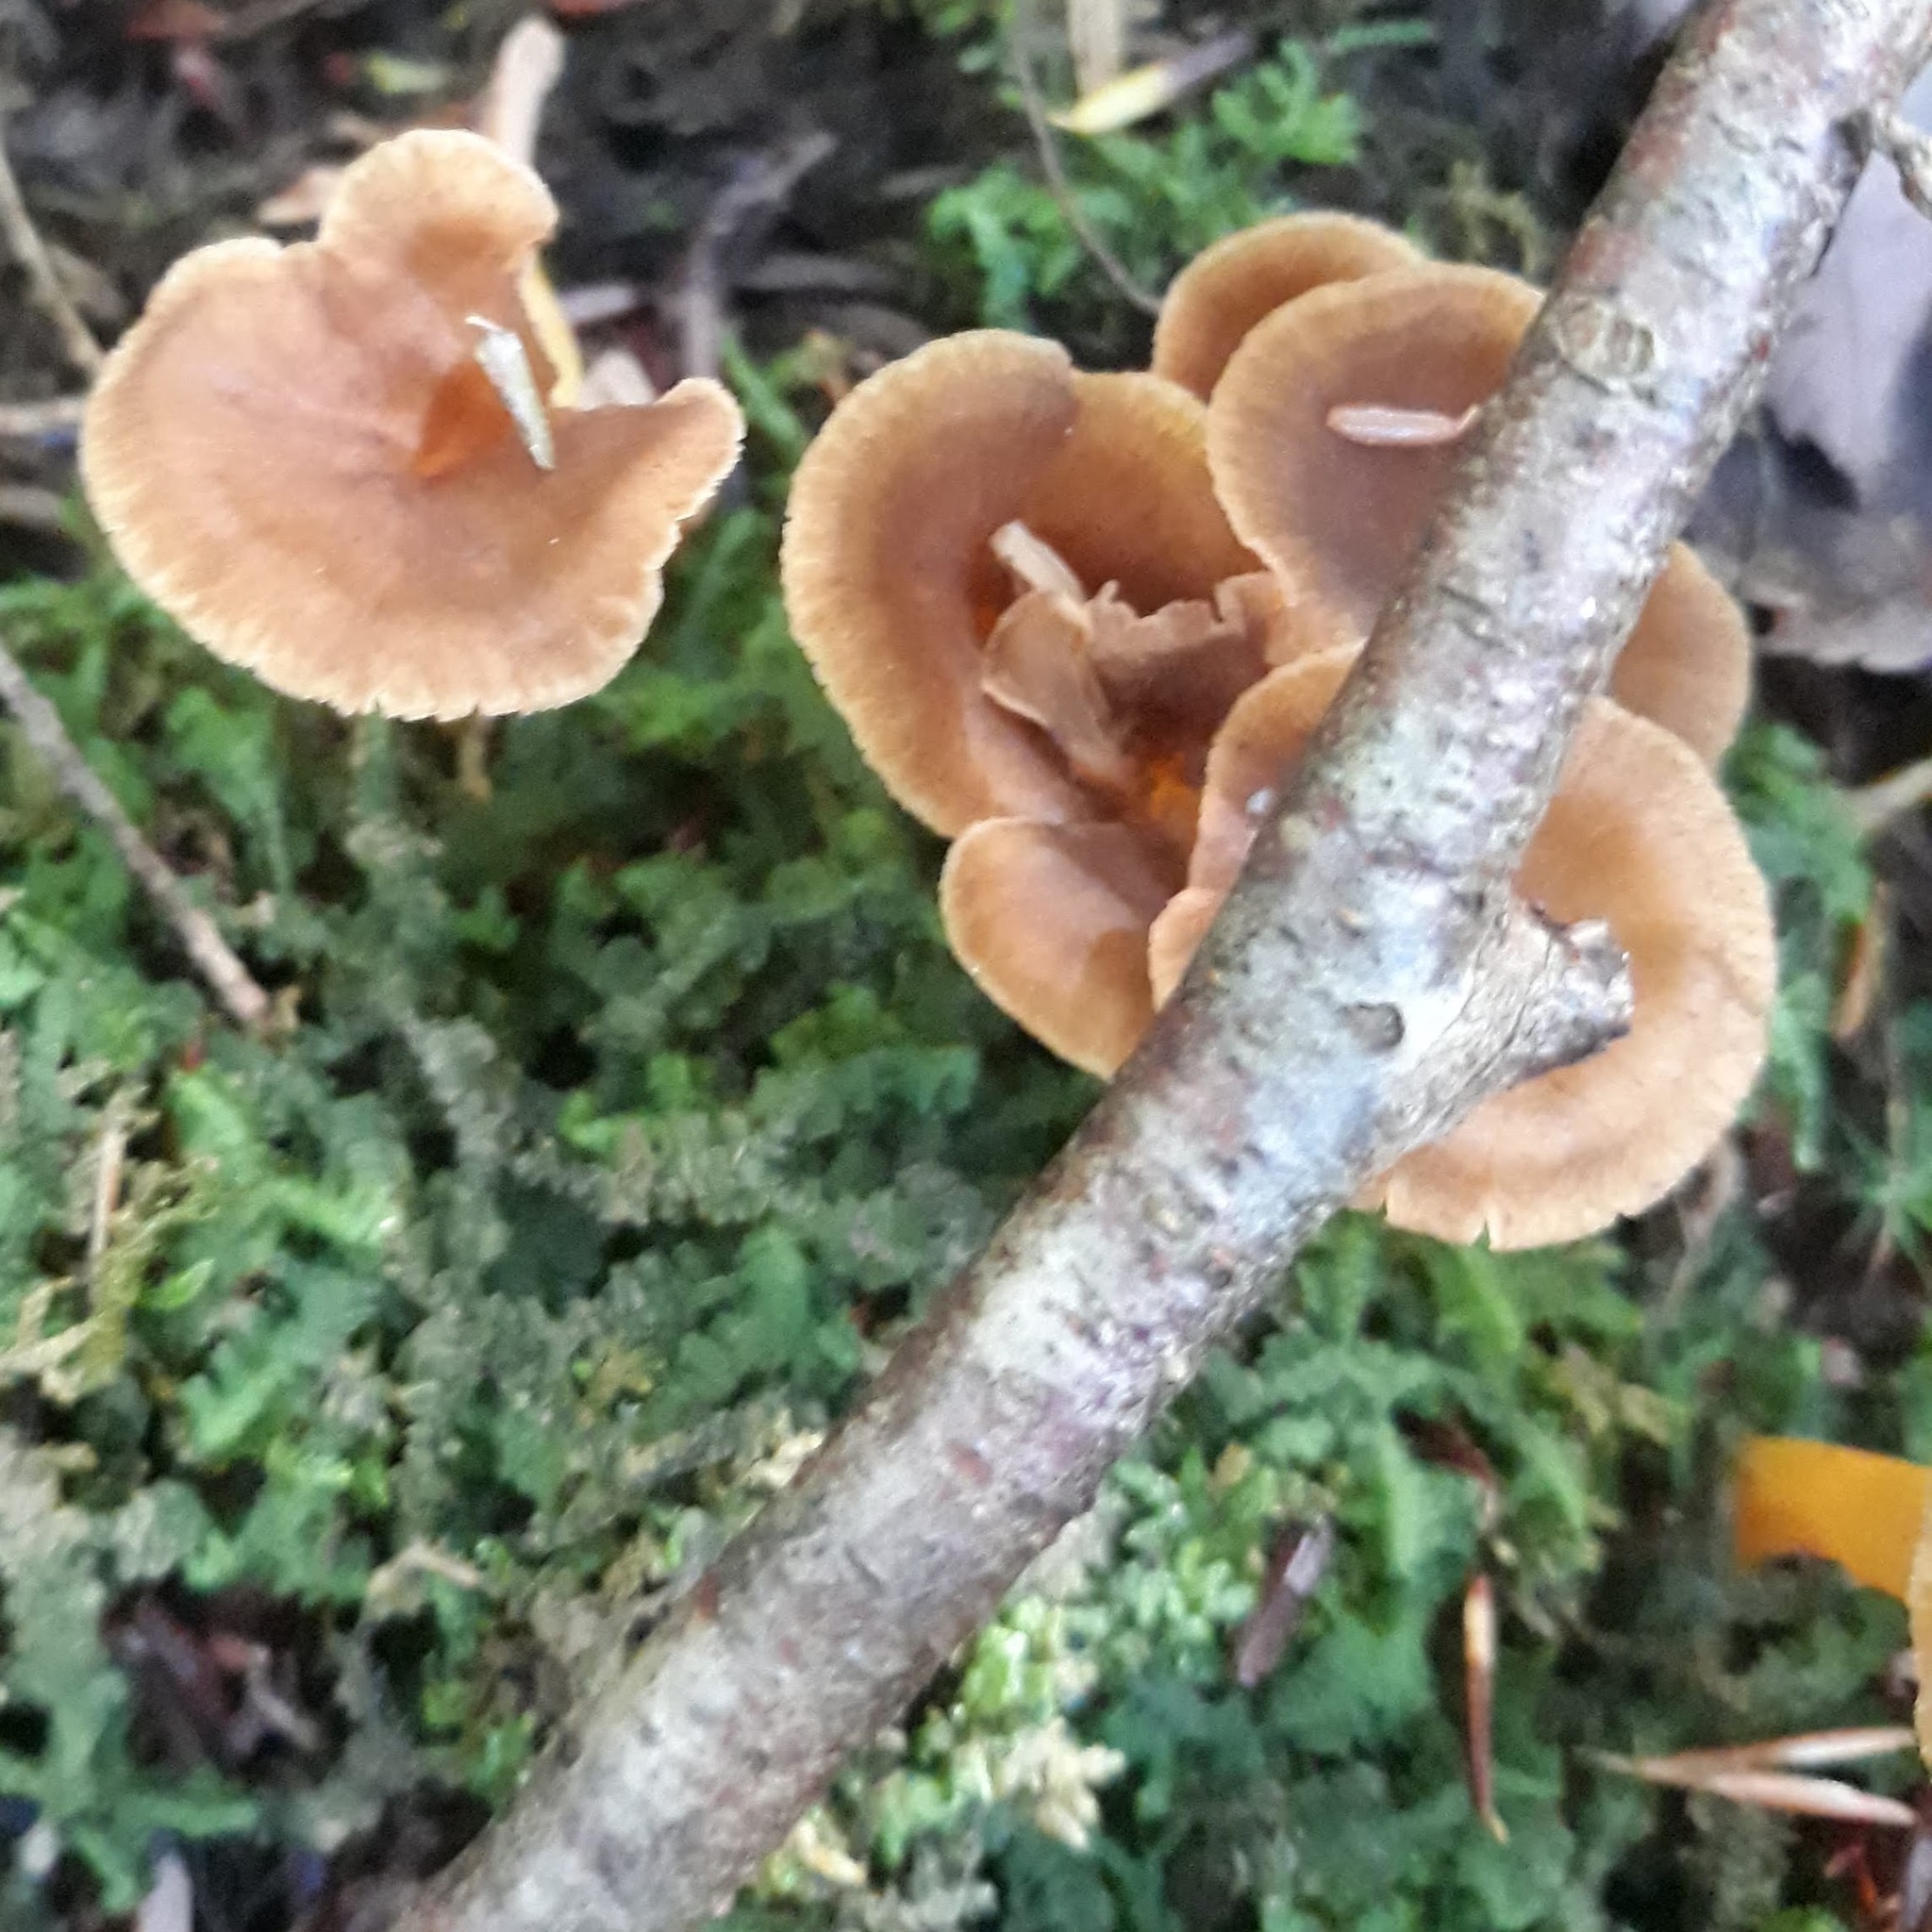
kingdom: Fungi
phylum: Basidiomycota
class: Agaricomycetes
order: Cantharellales
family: Hydnaceae
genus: Craterellus
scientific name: Craterellus tubaeformis
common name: Yellowfoot
